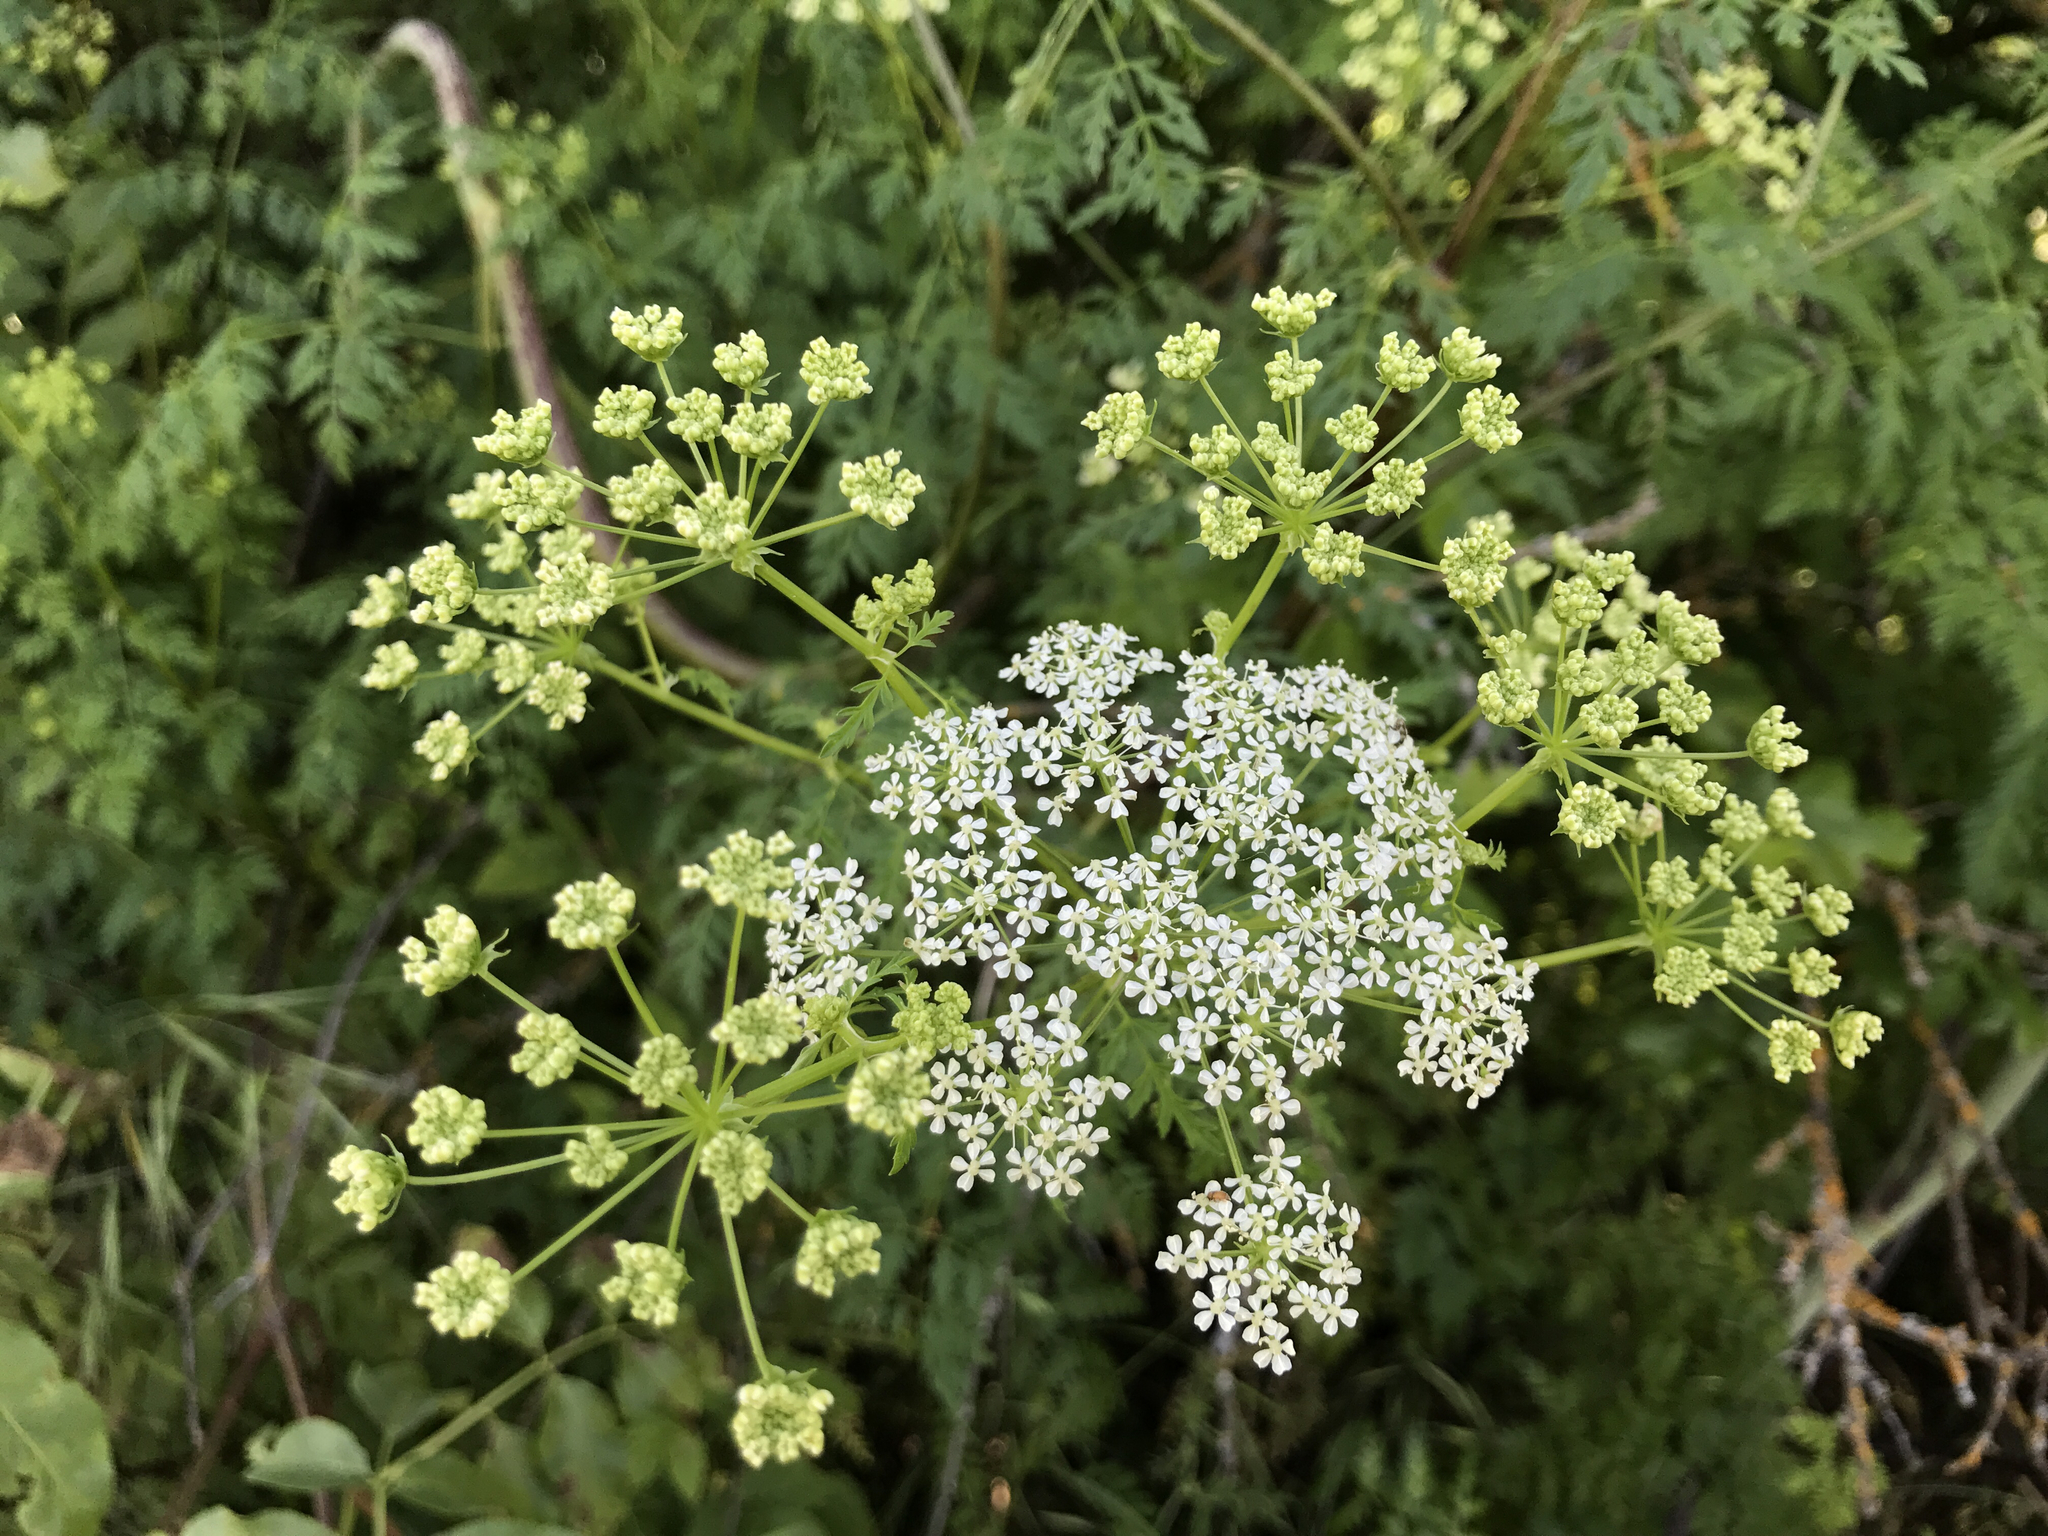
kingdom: Plantae
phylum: Tracheophyta
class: Magnoliopsida
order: Apiales
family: Apiaceae
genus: Conium
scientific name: Conium maculatum
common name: Hemlock
